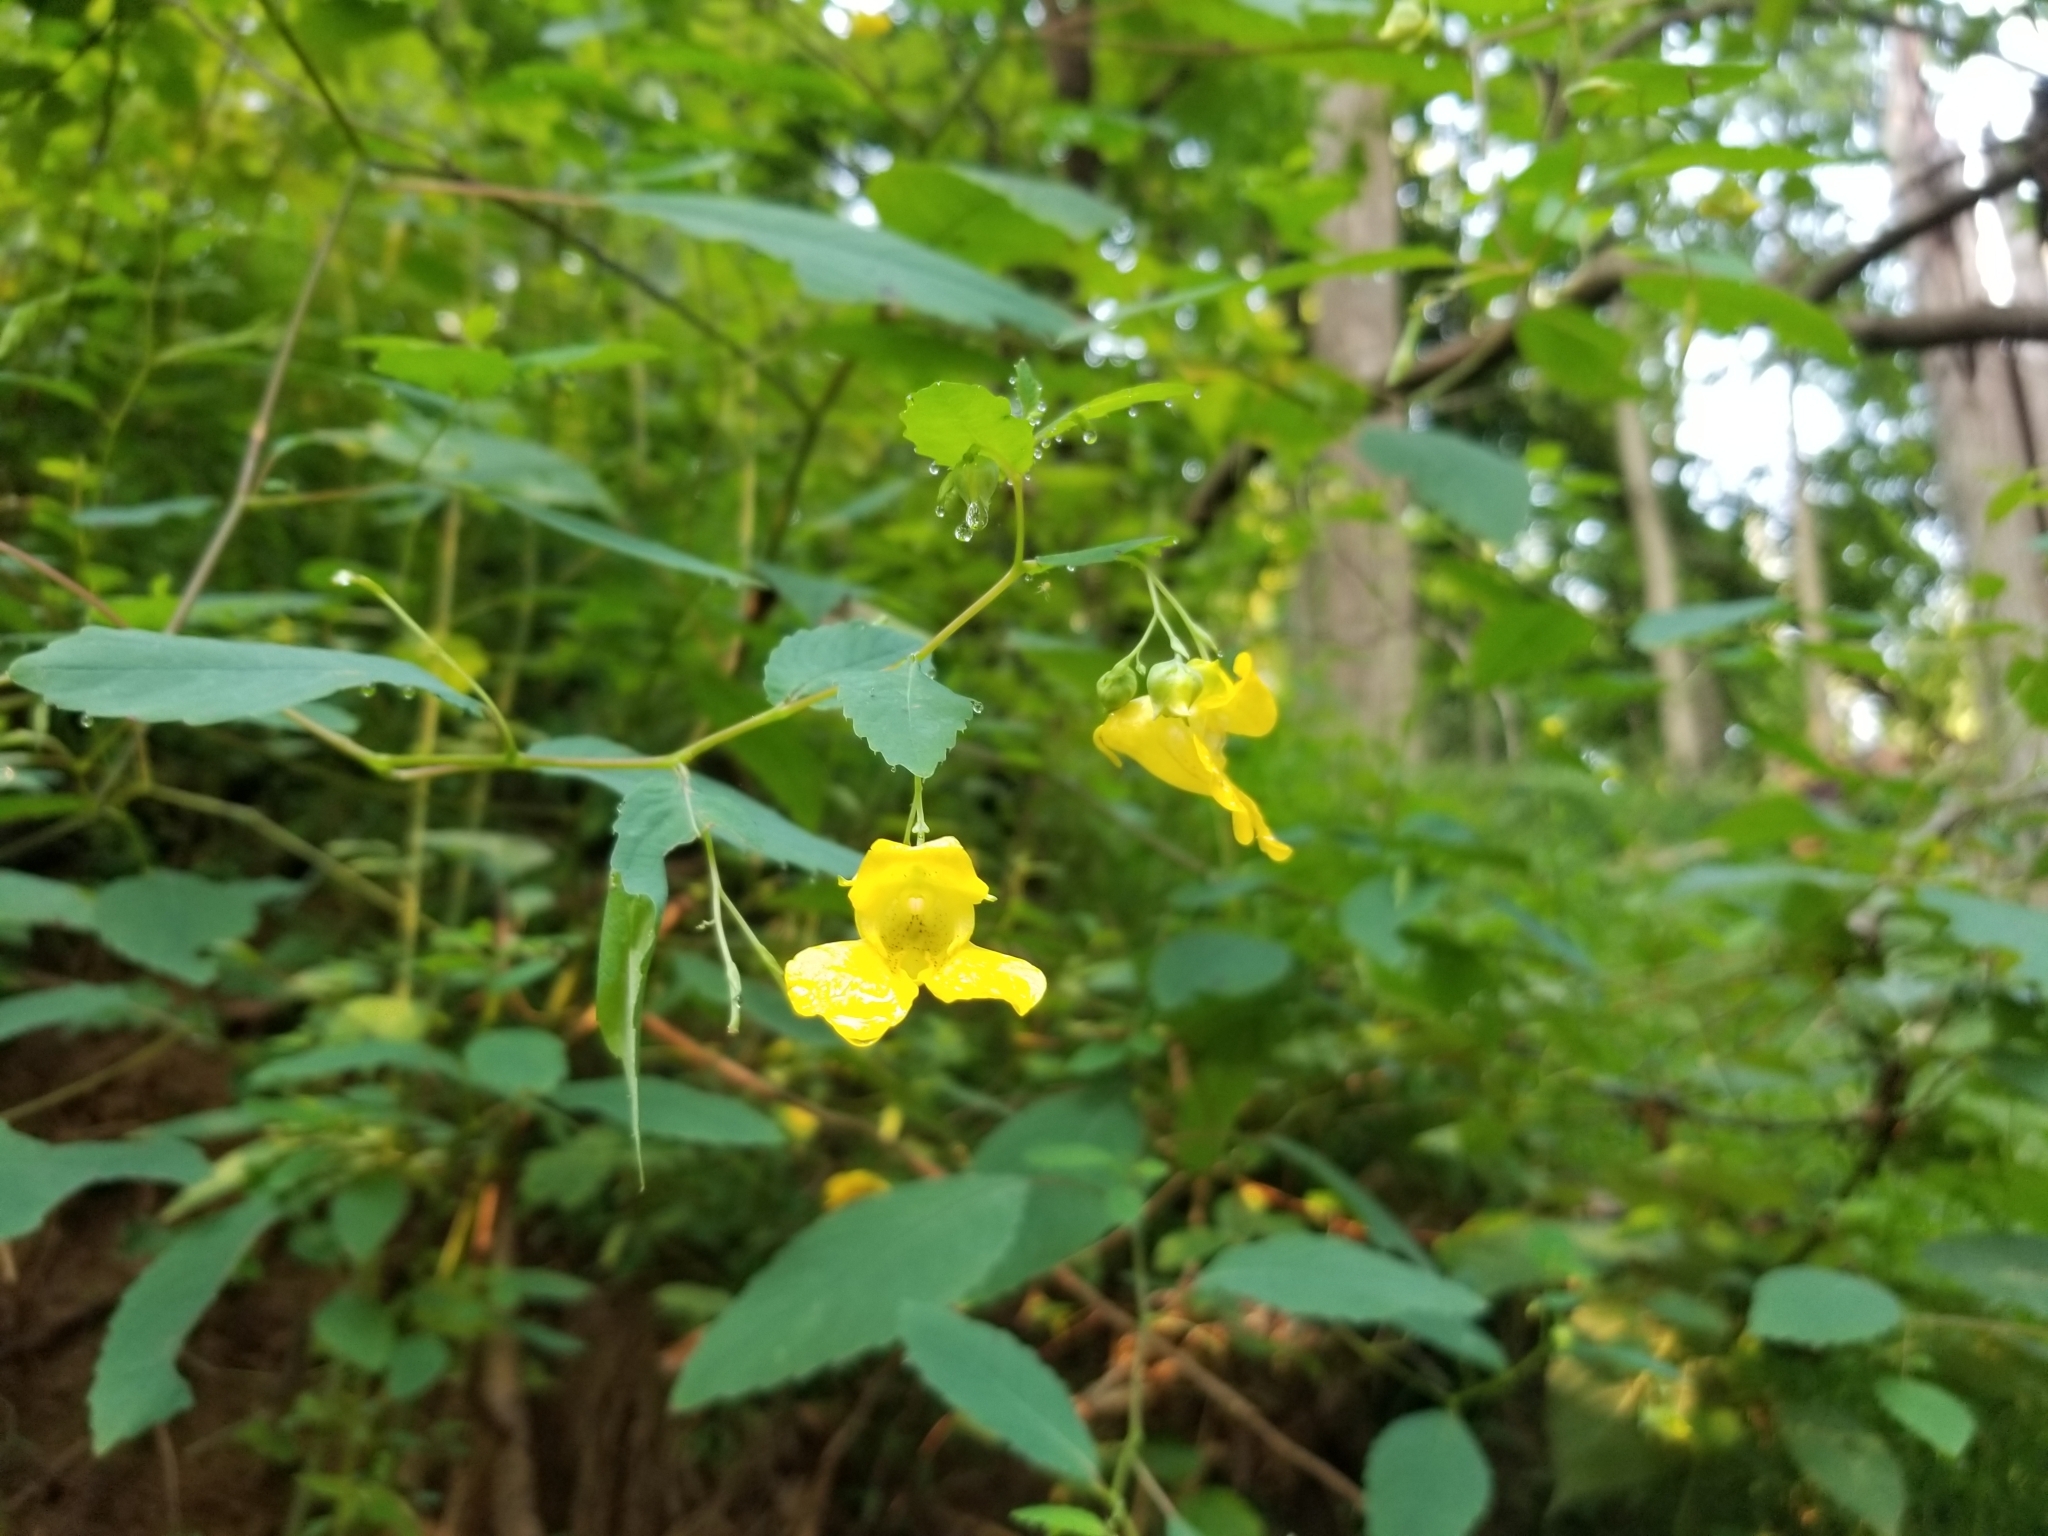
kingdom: Plantae
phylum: Tracheophyta
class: Magnoliopsida
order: Ericales
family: Balsaminaceae
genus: Impatiens
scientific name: Impatiens pallida
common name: Pale snapweed
